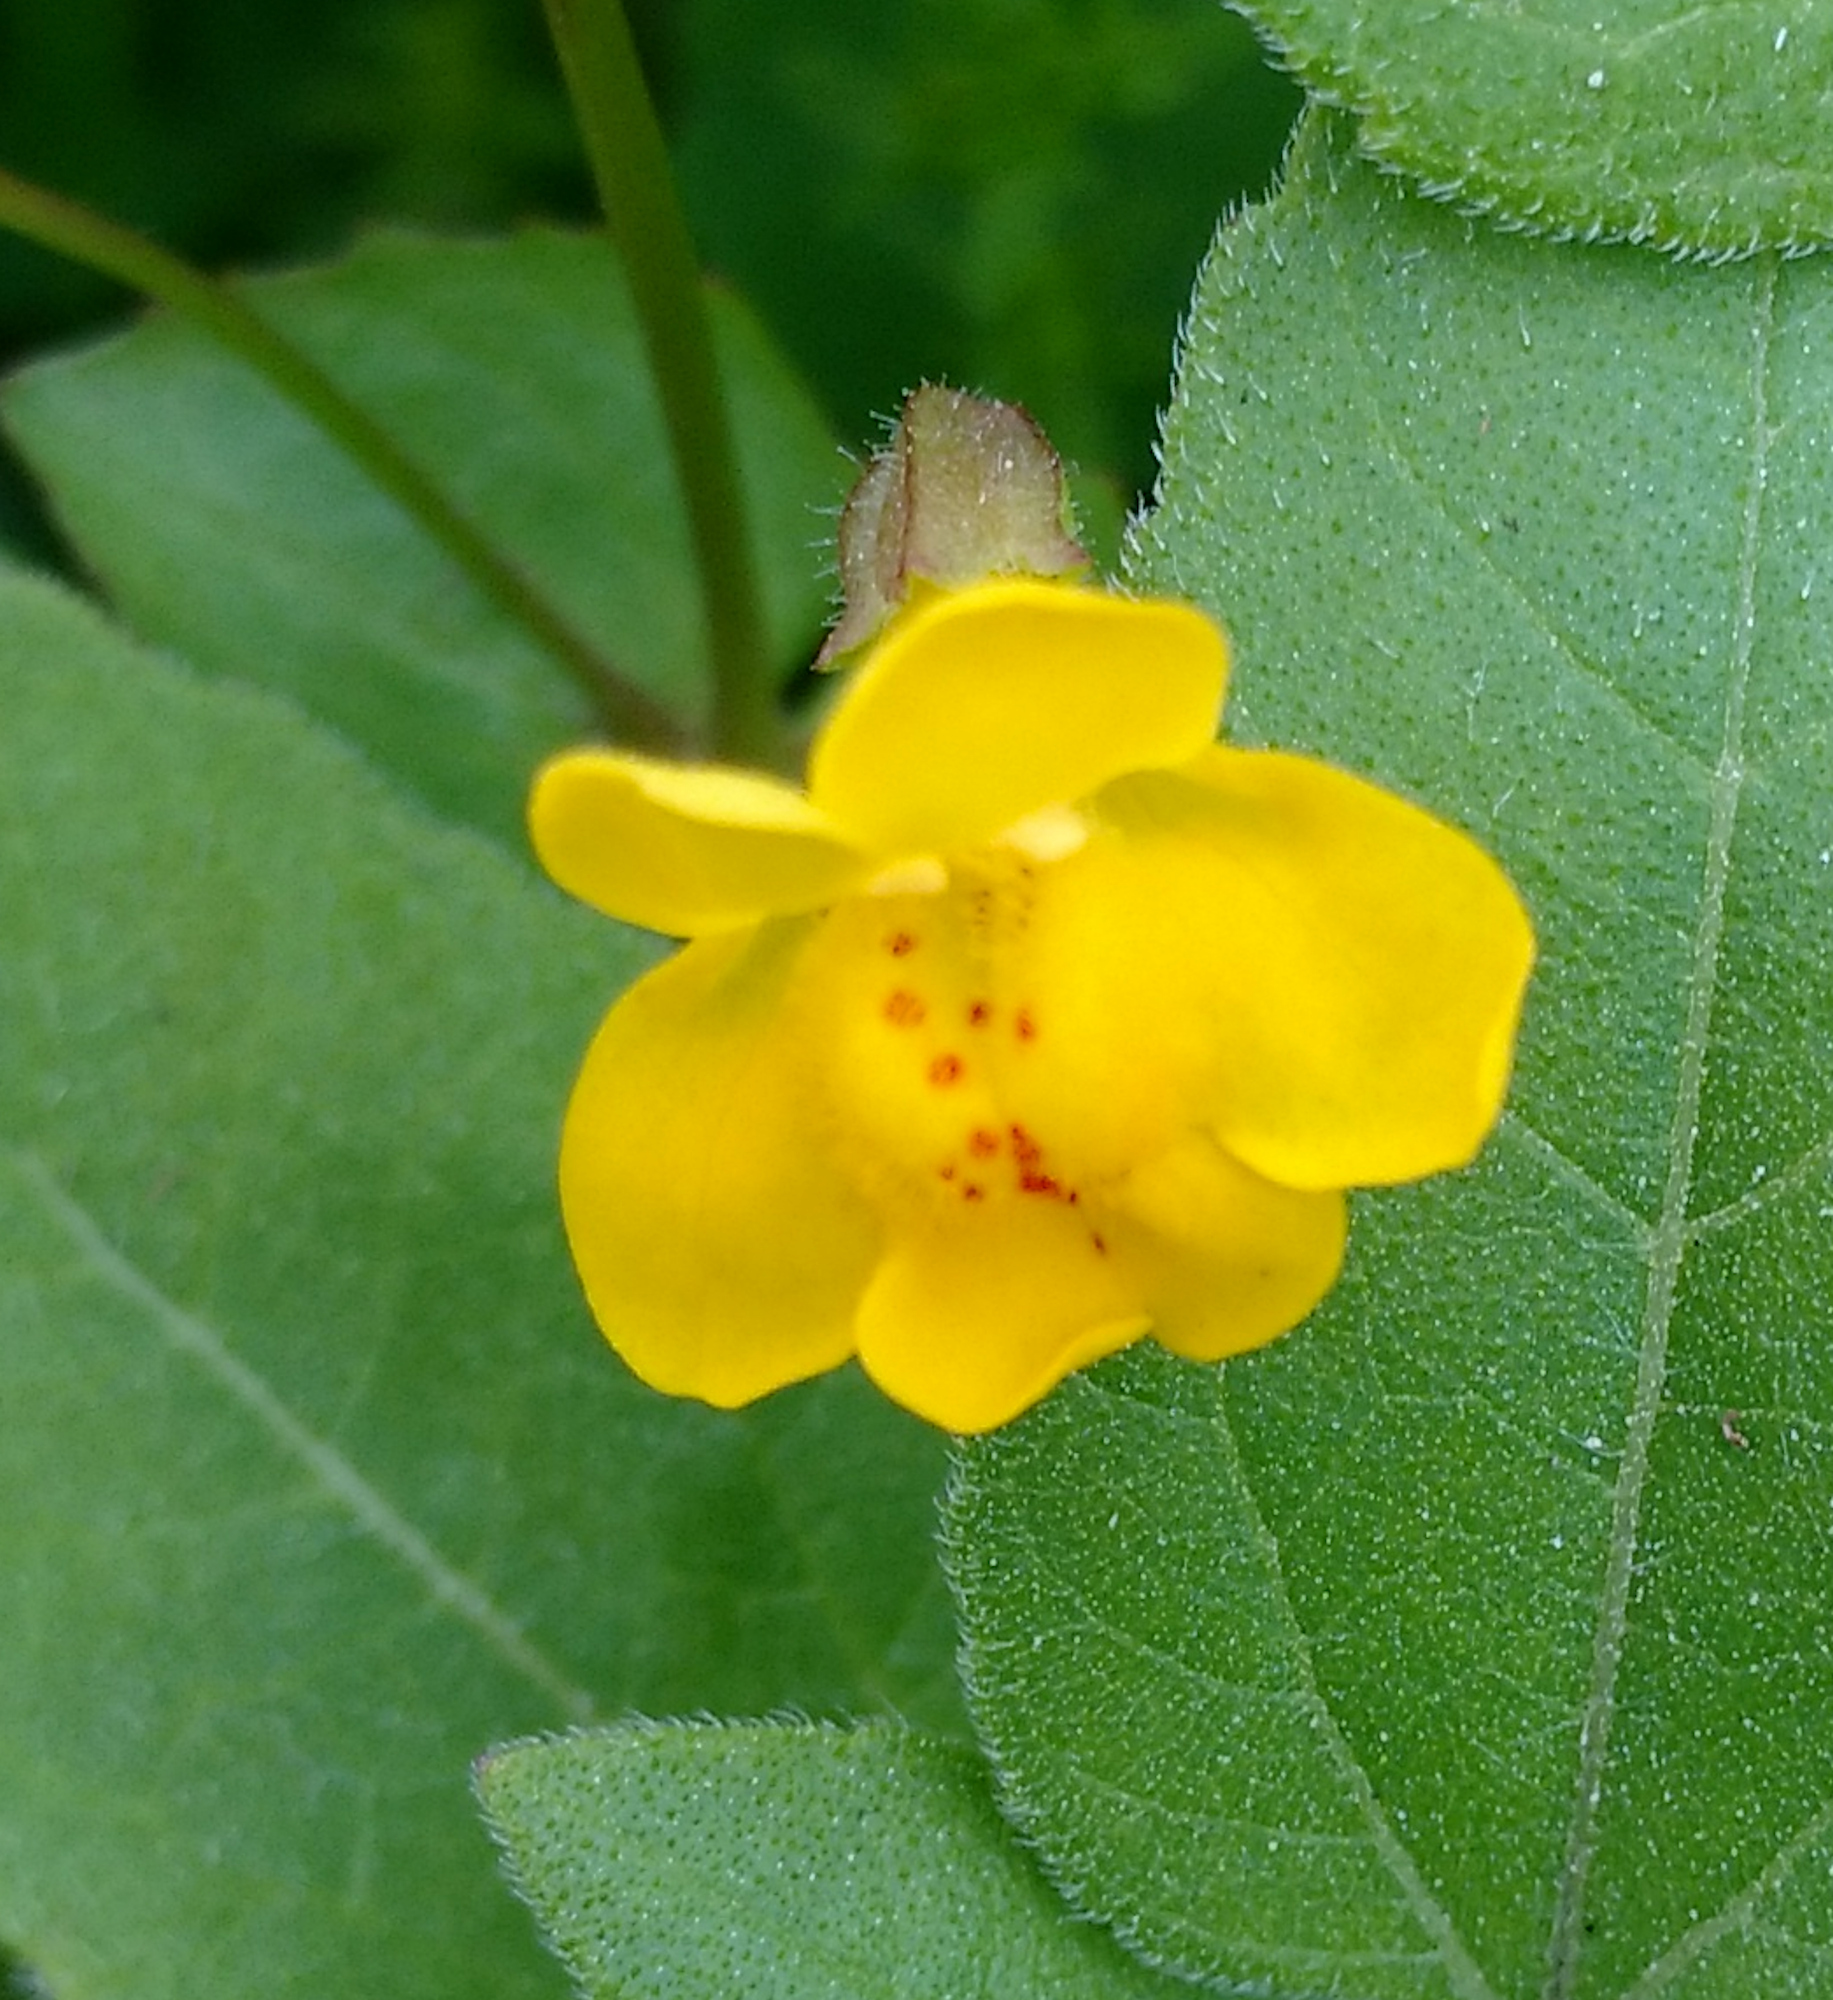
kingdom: Plantae
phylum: Tracheophyta
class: Magnoliopsida
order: Lamiales
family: Phrymaceae
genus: Erythranthe
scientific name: Erythranthe guttata
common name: Monkeyflower
